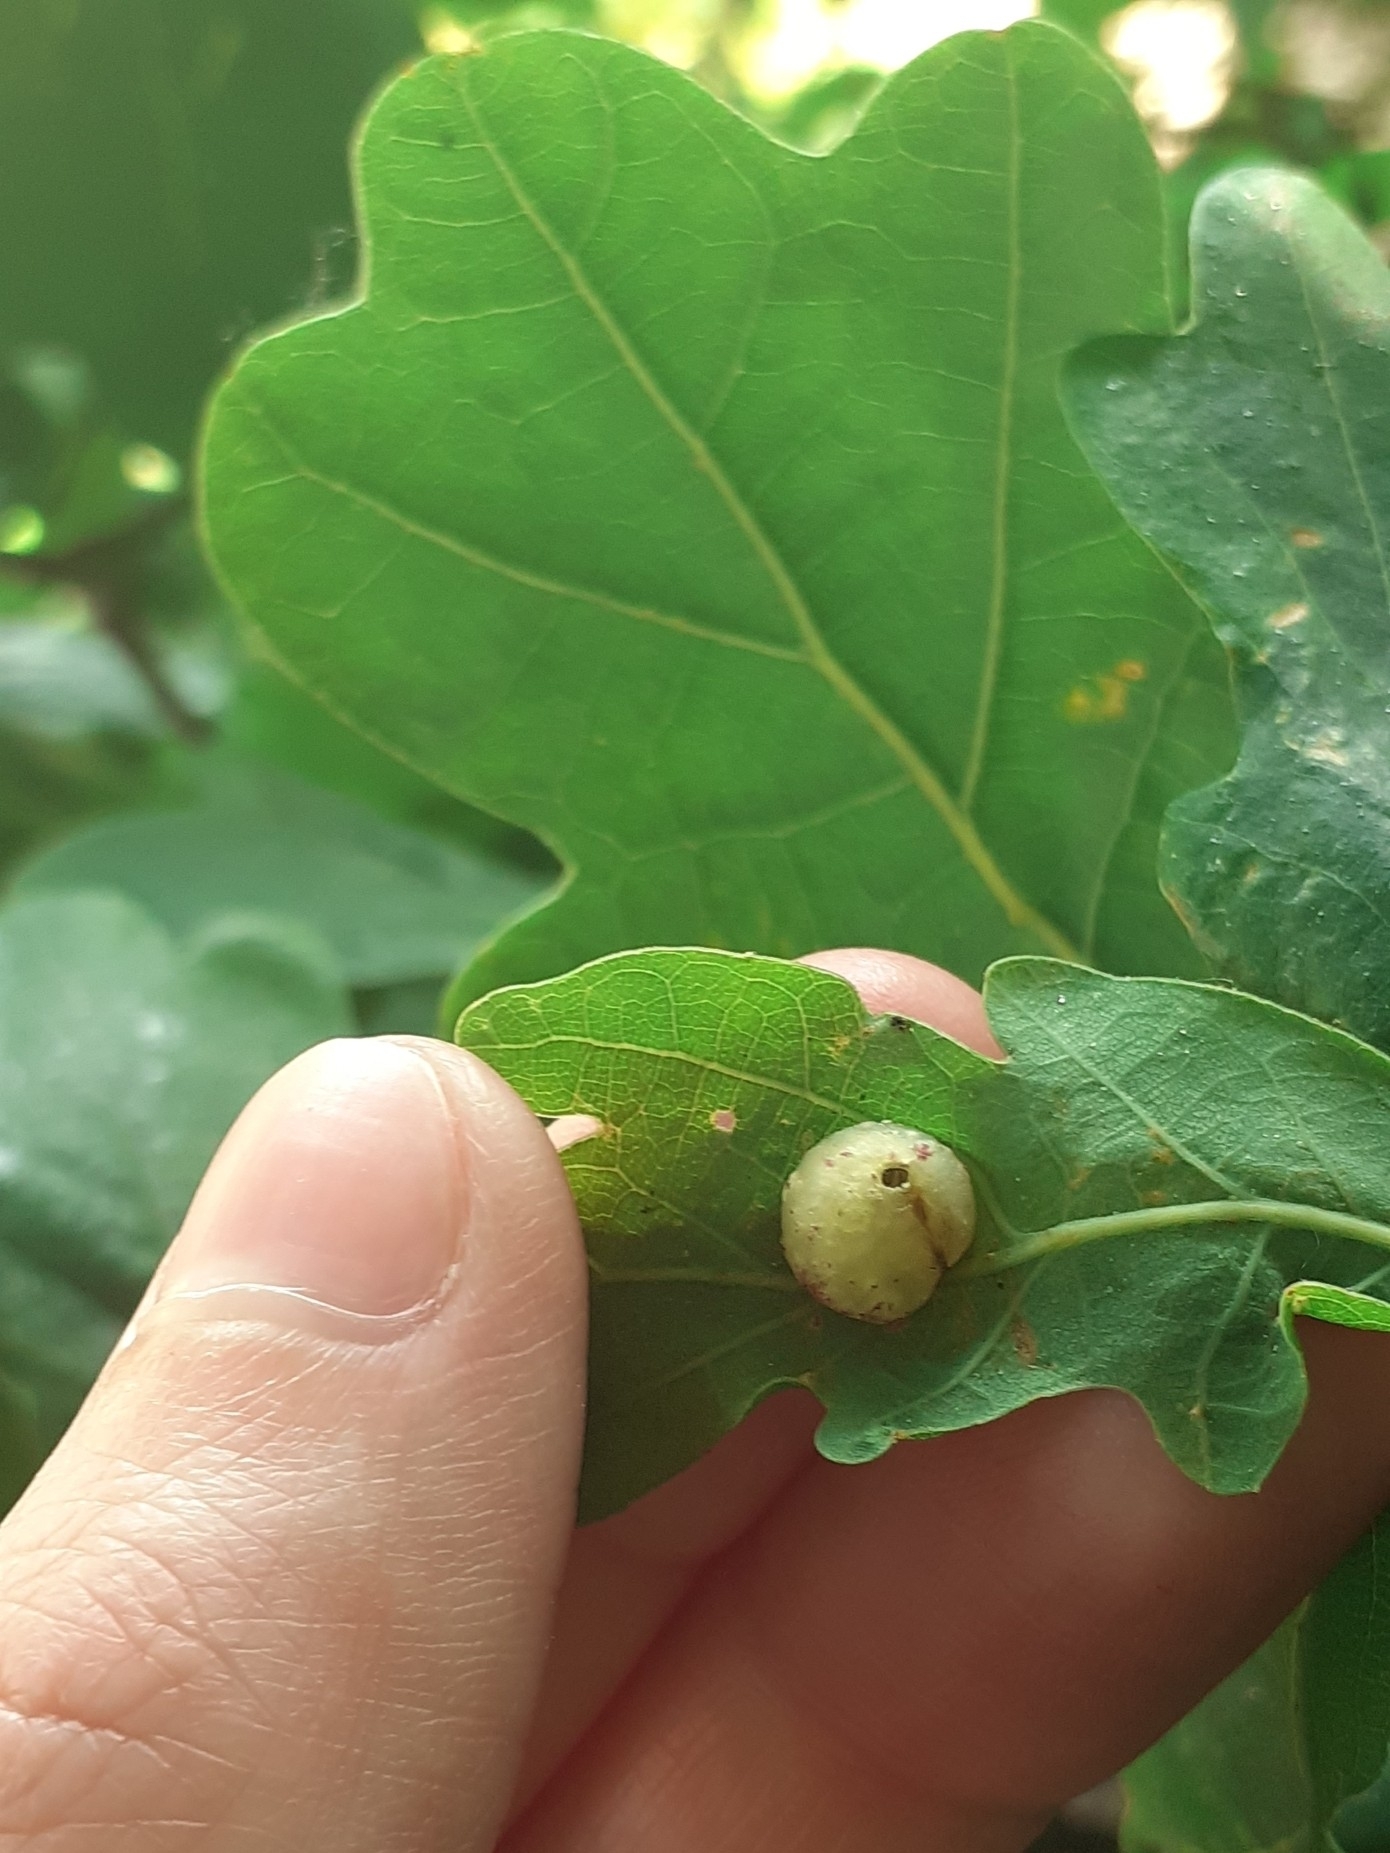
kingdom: Animalia
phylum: Arthropoda
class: Insecta
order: Hymenoptera
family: Cynipidae
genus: Neuroterus
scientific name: Neuroterus quercusbaccarum
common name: Common spangle gall
